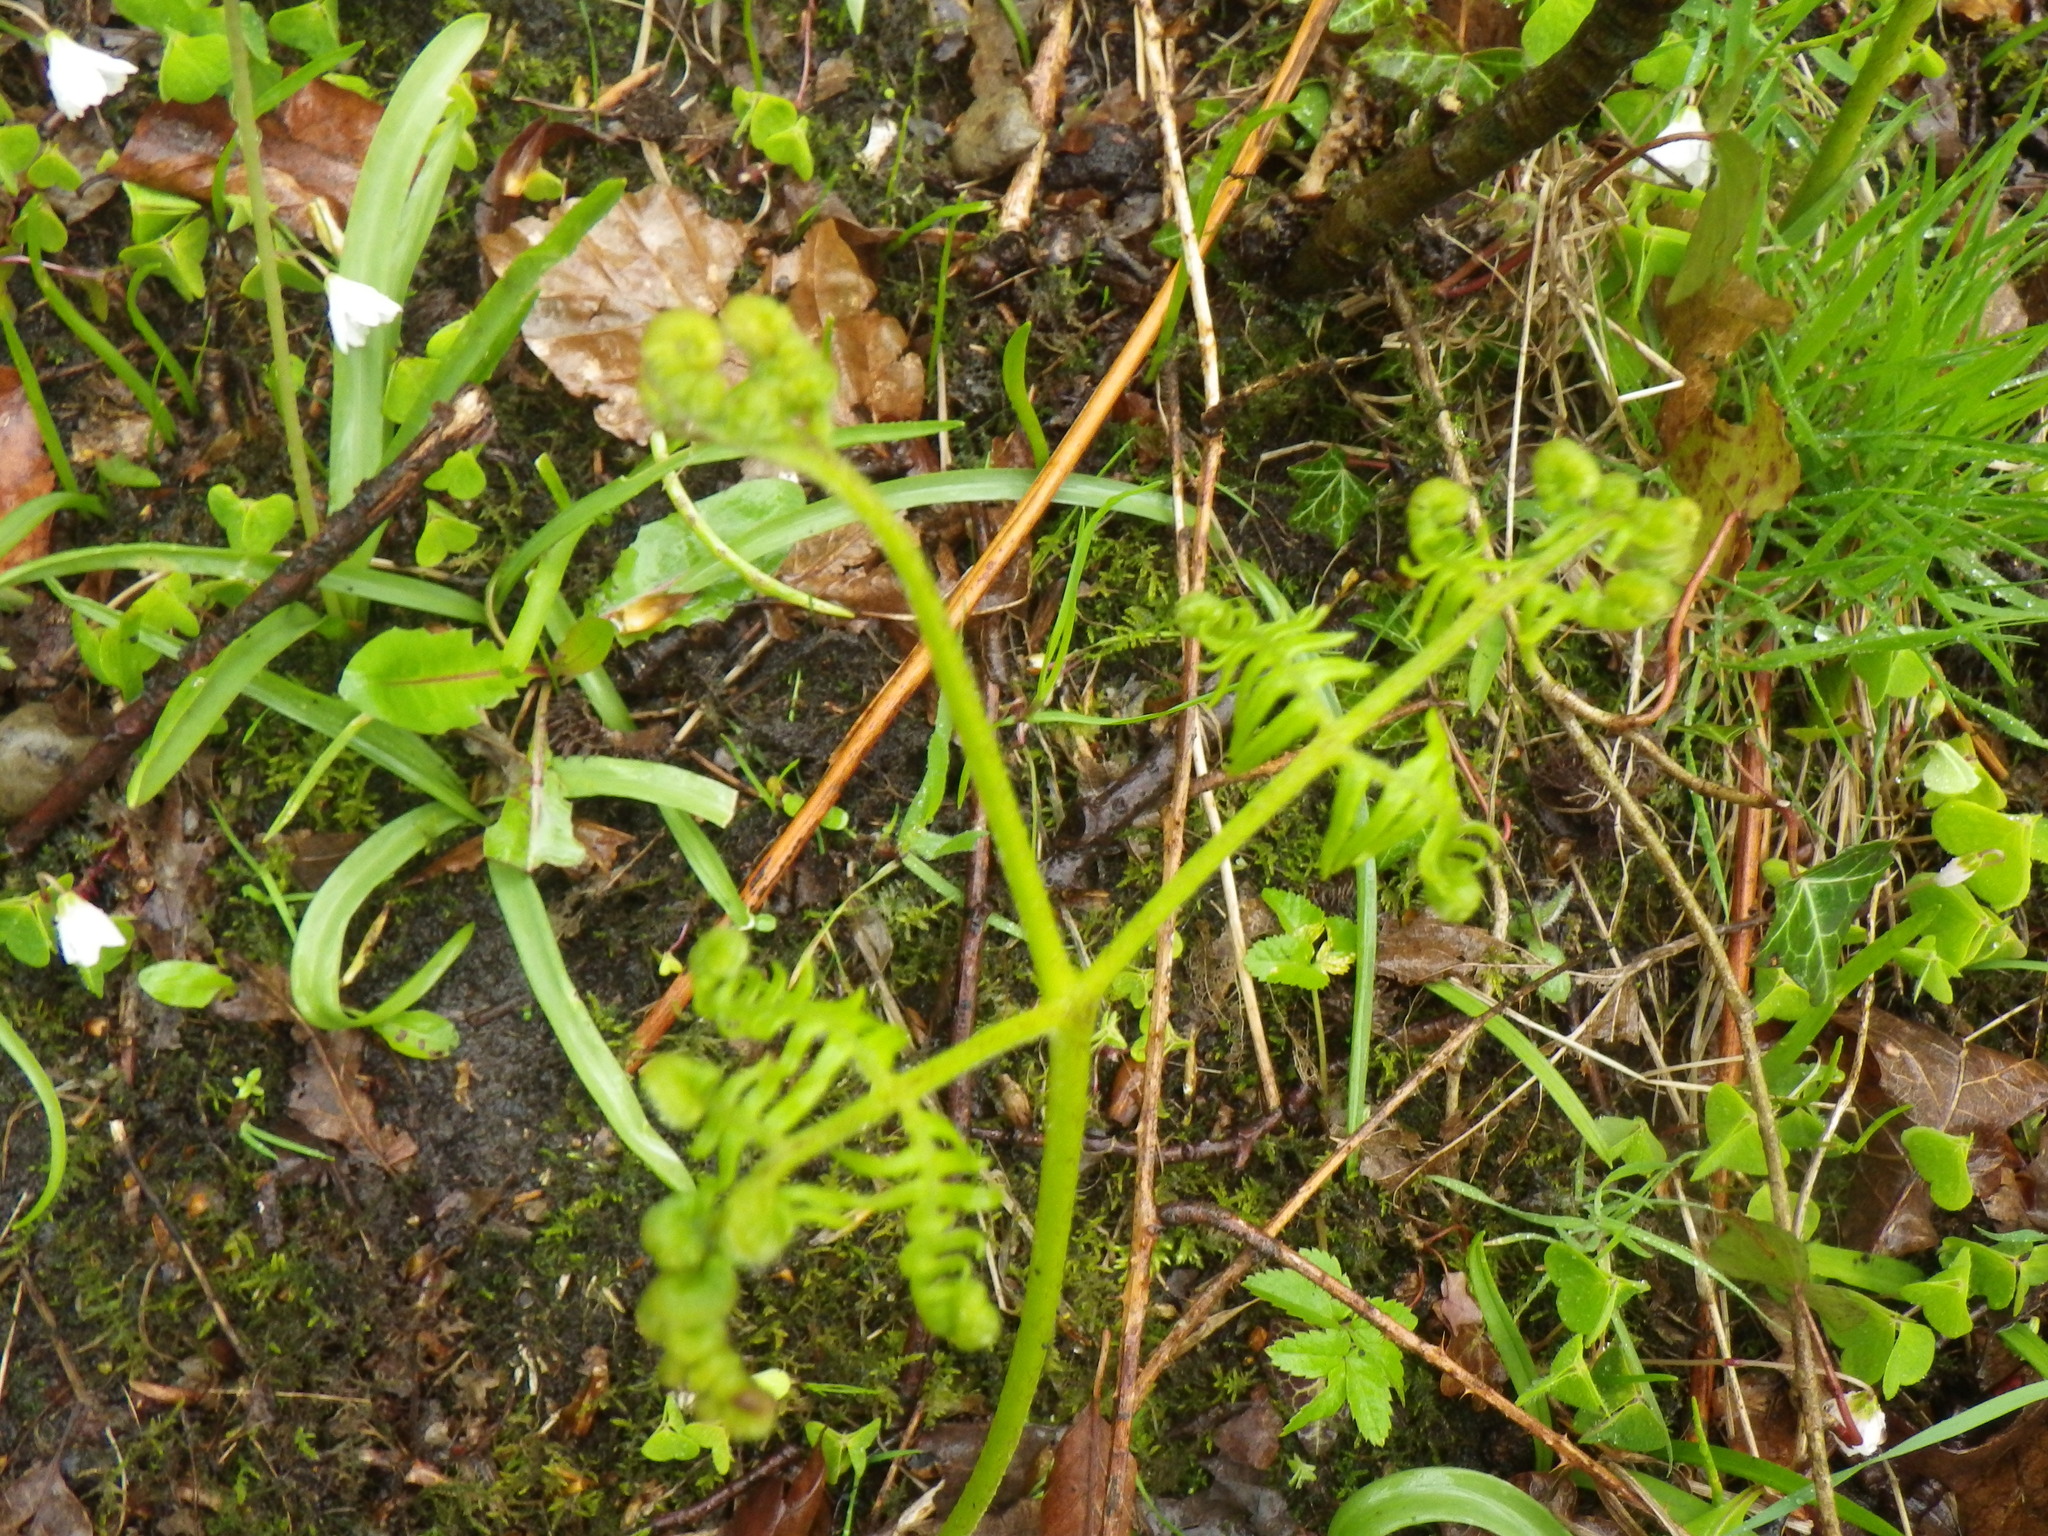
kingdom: Plantae
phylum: Tracheophyta
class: Polypodiopsida
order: Polypodiales
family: Dennstaedtiaceae
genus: Pteridium
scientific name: Pteridium aquilinum
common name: Bracken
